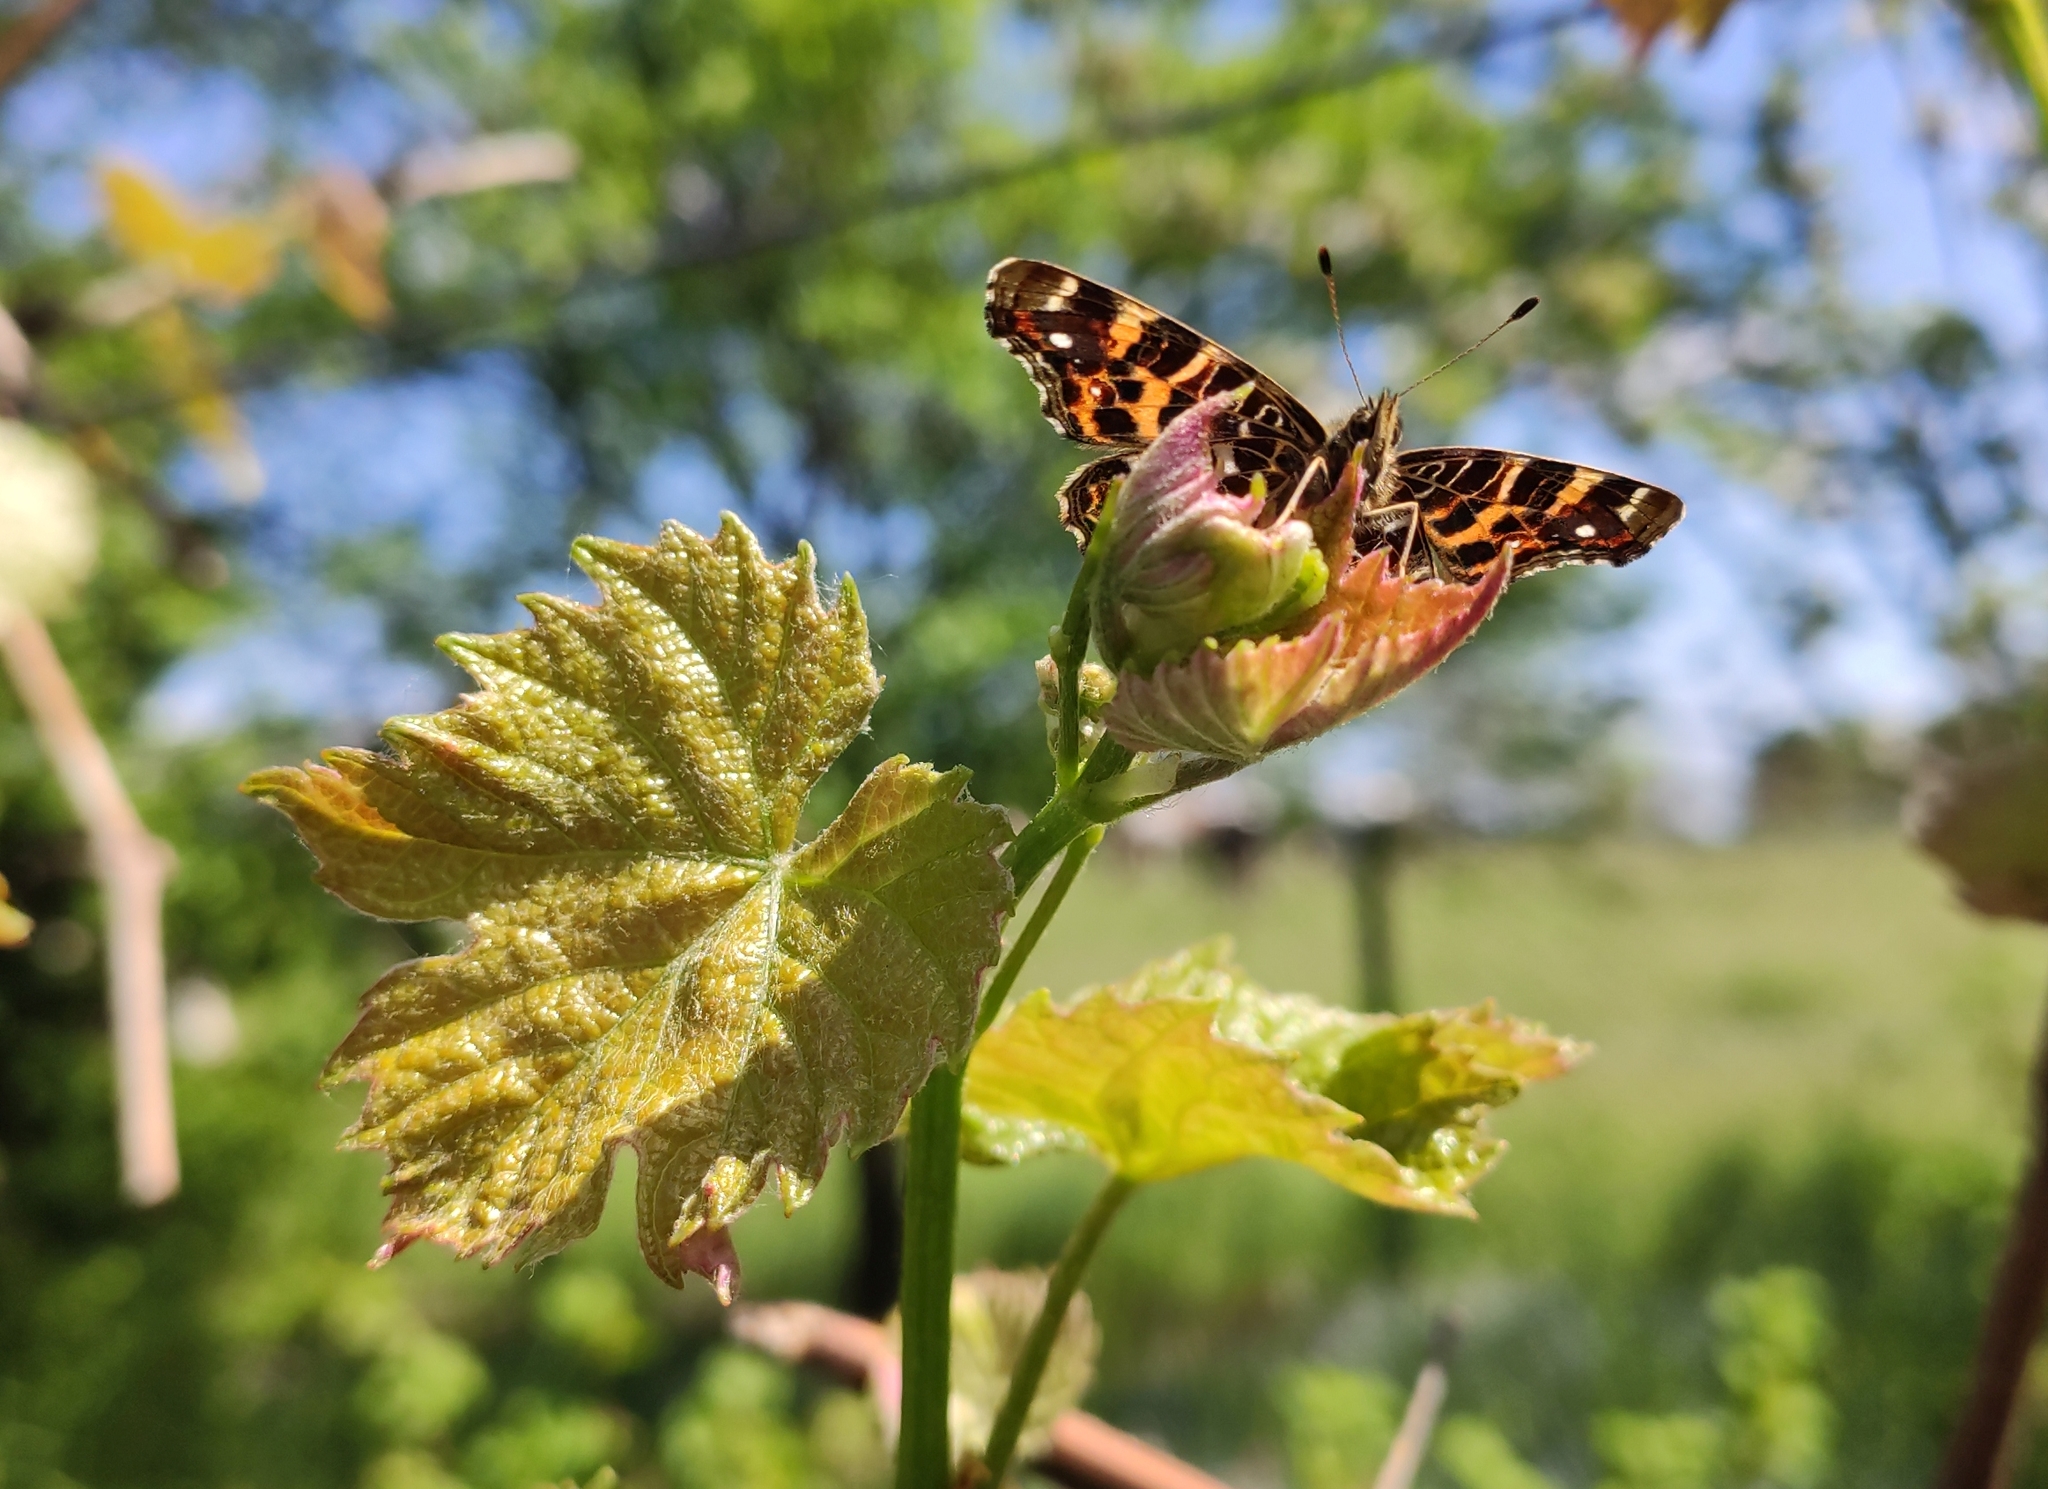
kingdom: Animalia
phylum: Arthropoda
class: Insecta
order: Lepidoptera
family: Nymphalidae
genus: Araschnia
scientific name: Araschnia levana
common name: Map butterfly
